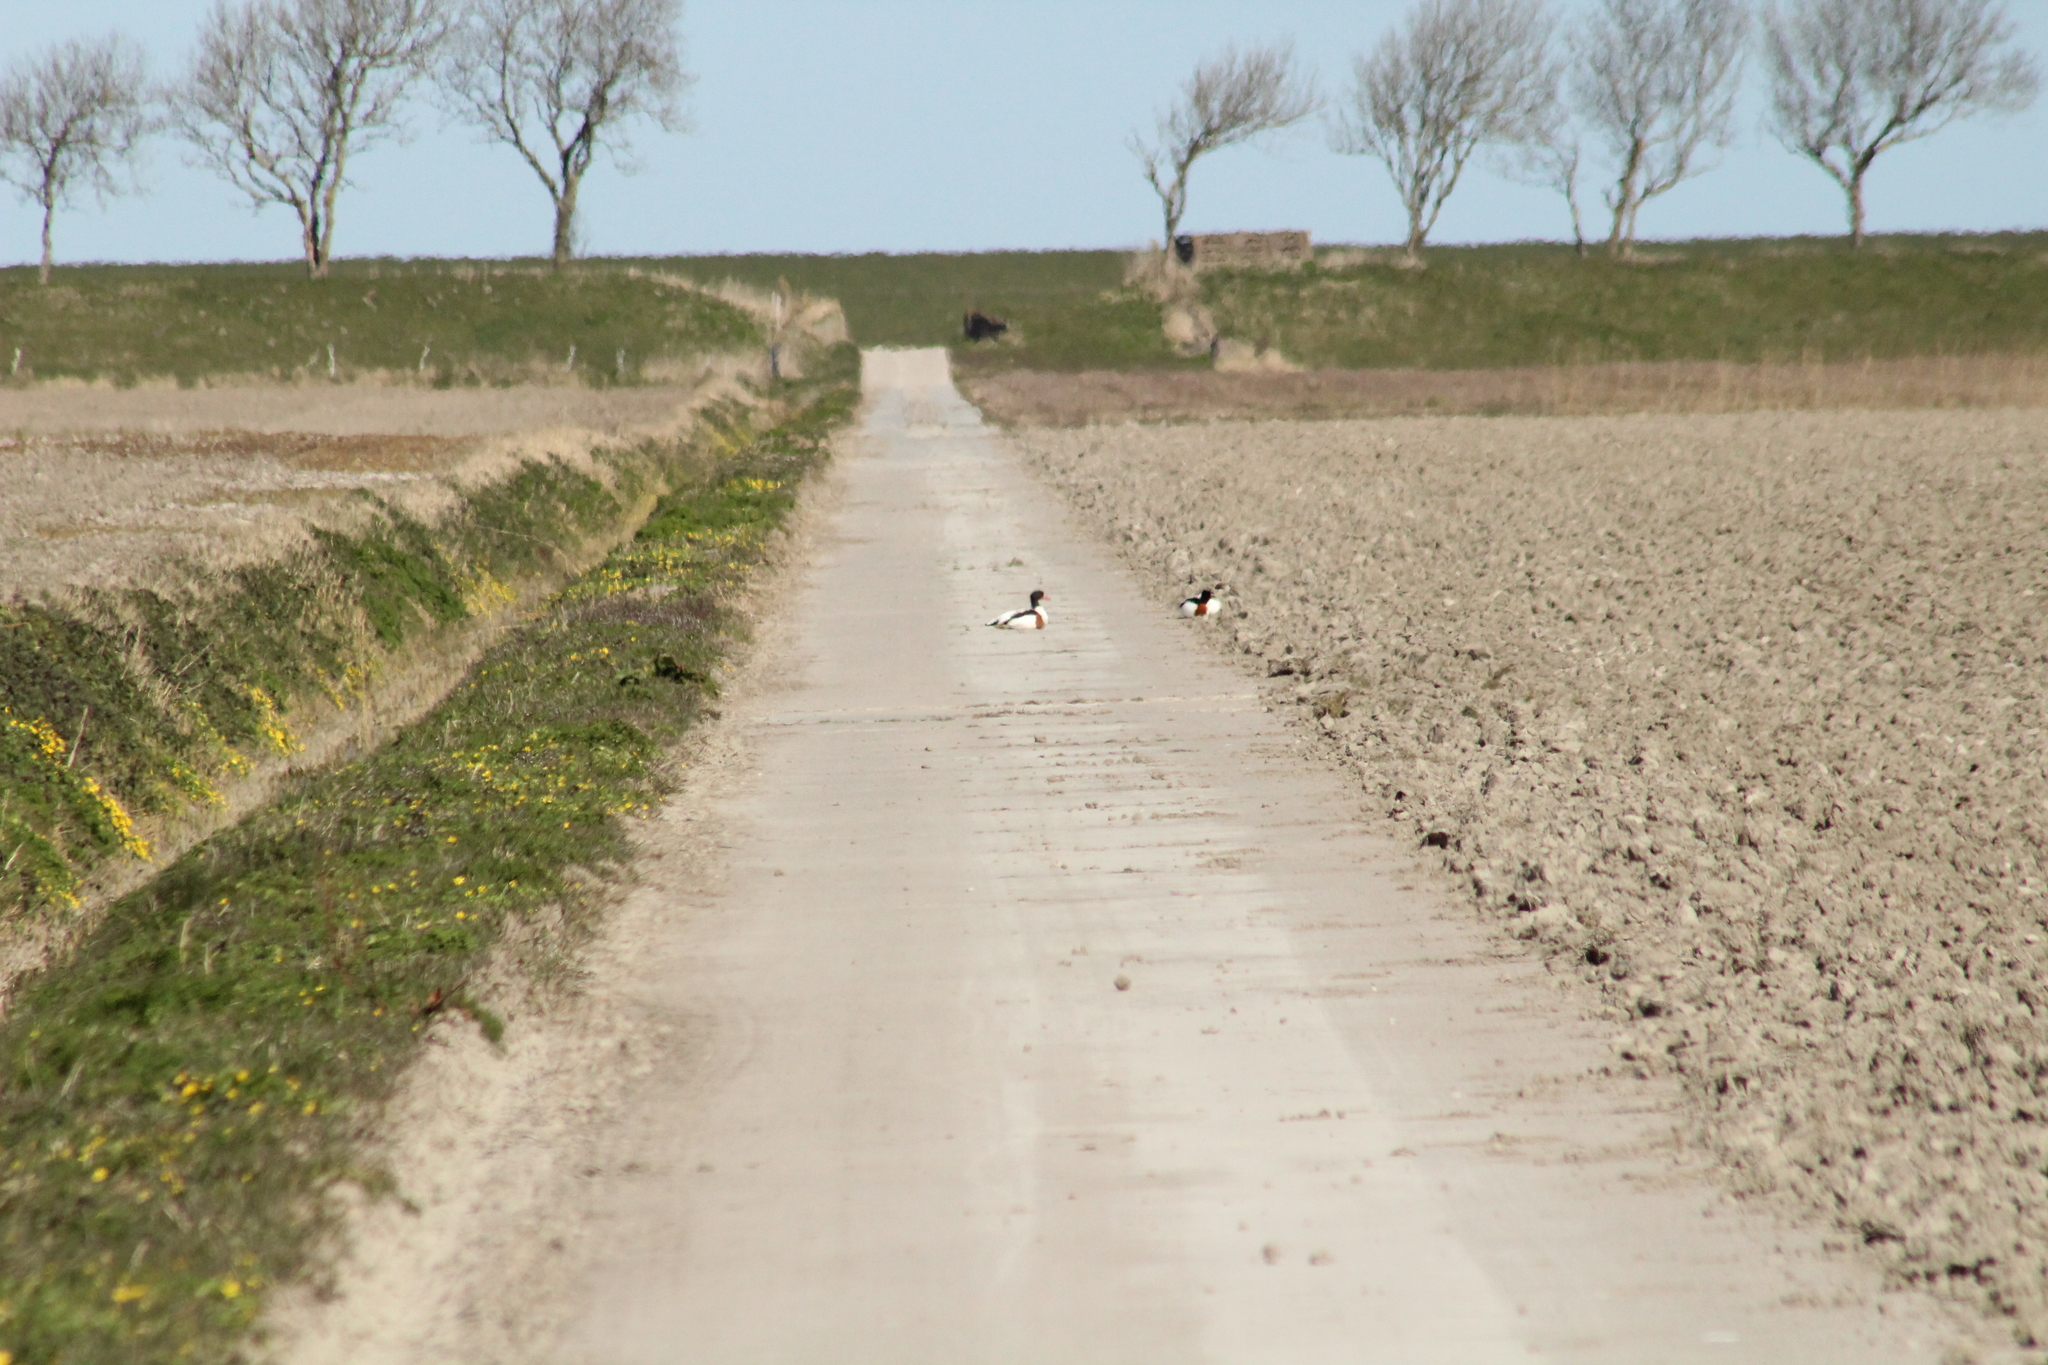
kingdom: Animalia
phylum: Chordata
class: Aves
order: Anseriformes
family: Anatidae
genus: Tadorna
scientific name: Tadorna tadorna
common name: Common shelduck
